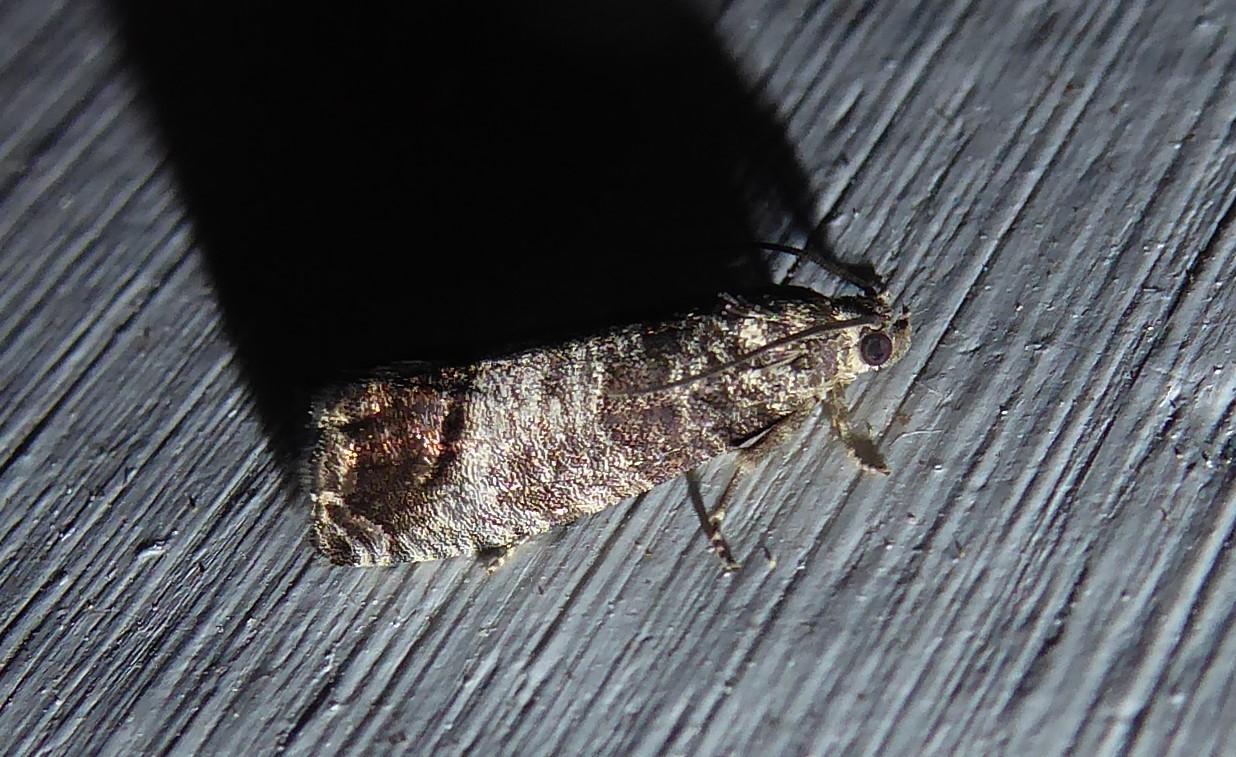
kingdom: Animalia
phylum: Arthropoda
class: Insecta
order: Lepidoptera
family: Tortricidae
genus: Cydia
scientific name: Cydia pomonella
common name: Codling moth
